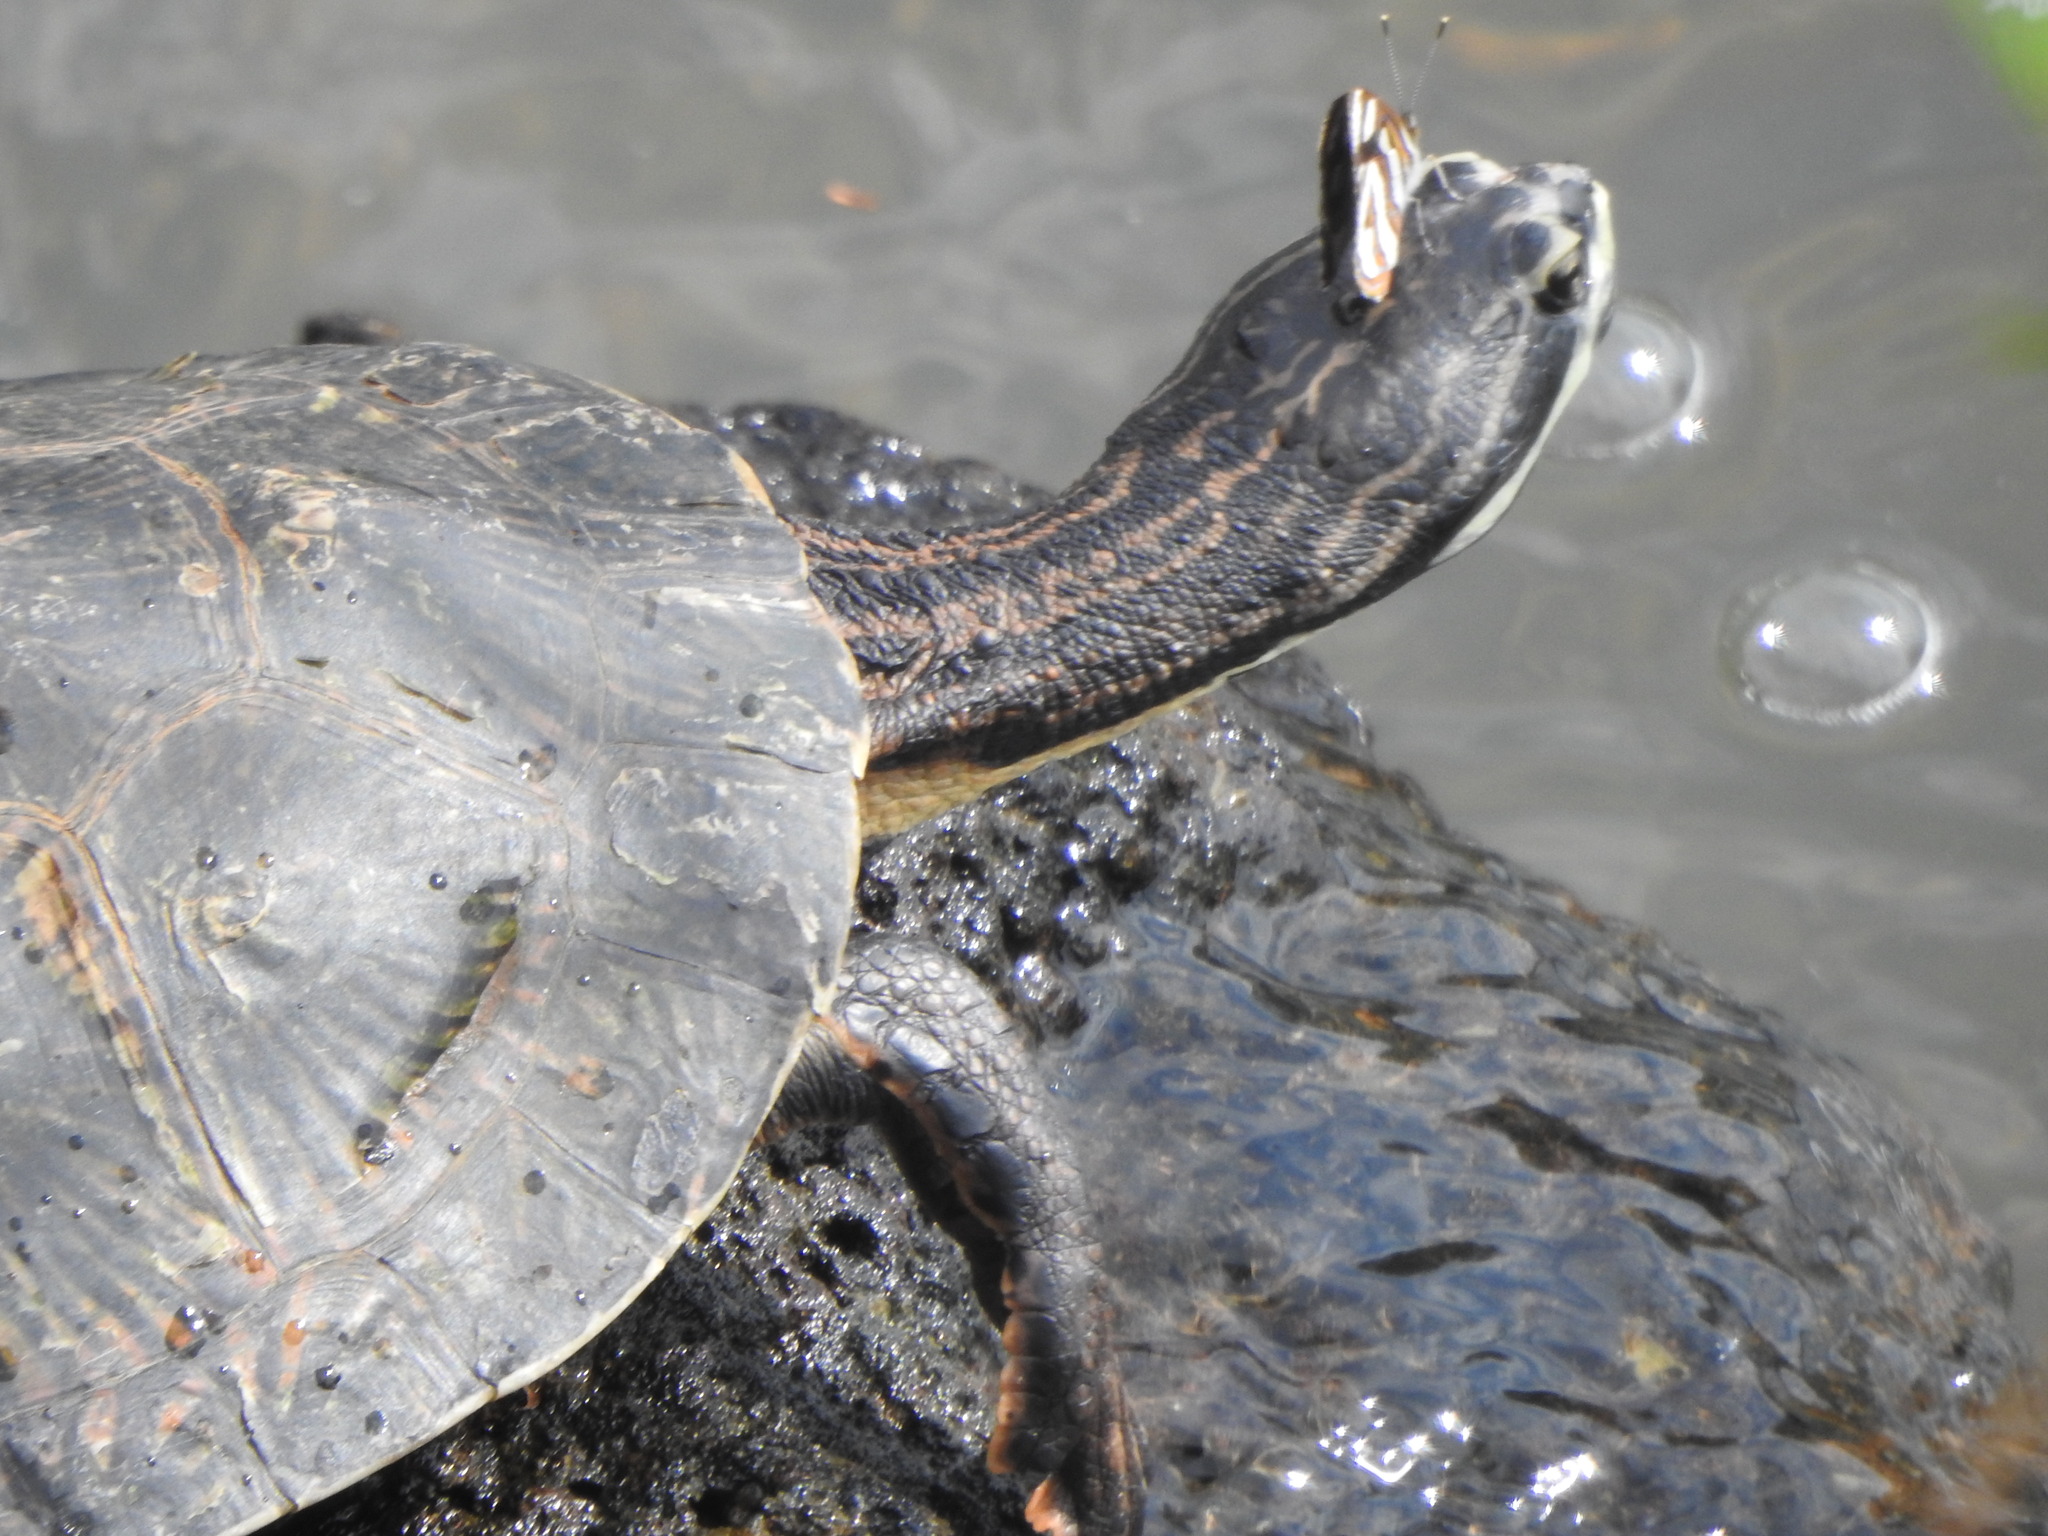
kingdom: Animalia
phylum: Chordata
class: Testudines
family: Chelidae
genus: Phrynops
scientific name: Phrynops williamsi
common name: Williams side-necked turtle
